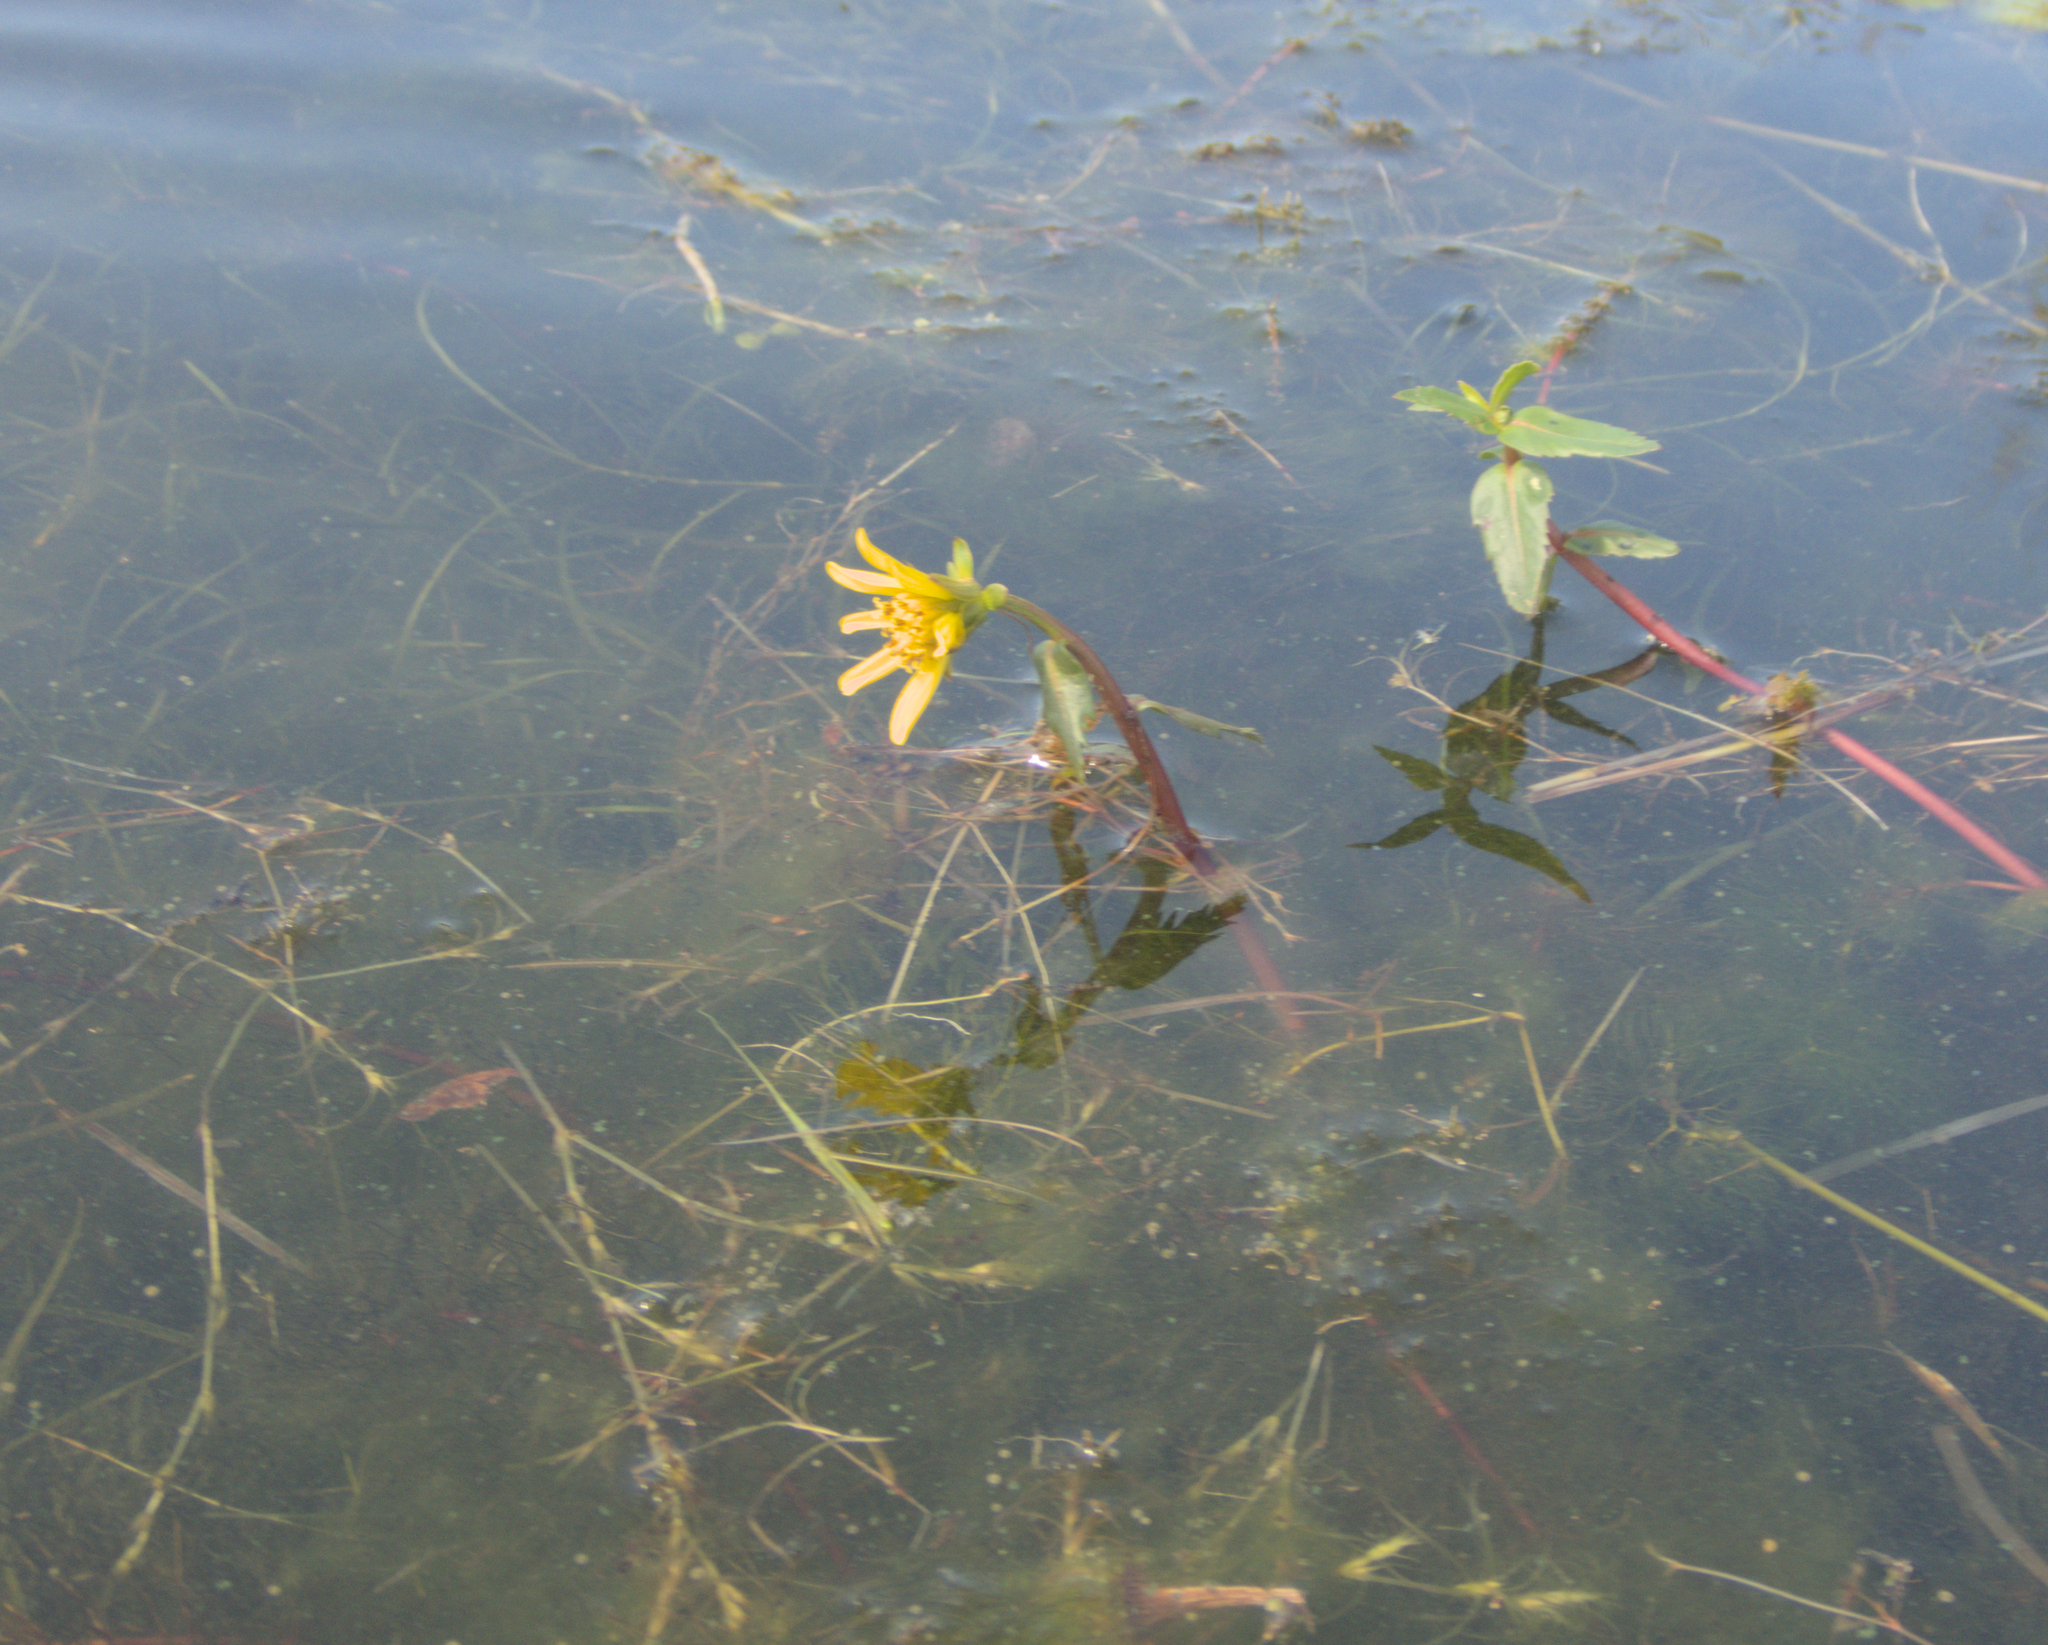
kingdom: Plantae
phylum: Tracheophyta
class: Magnoliopsida
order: Asterales
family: Asteraceae
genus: Bidens
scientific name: Bidens beckii
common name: Beck's beggarticks
